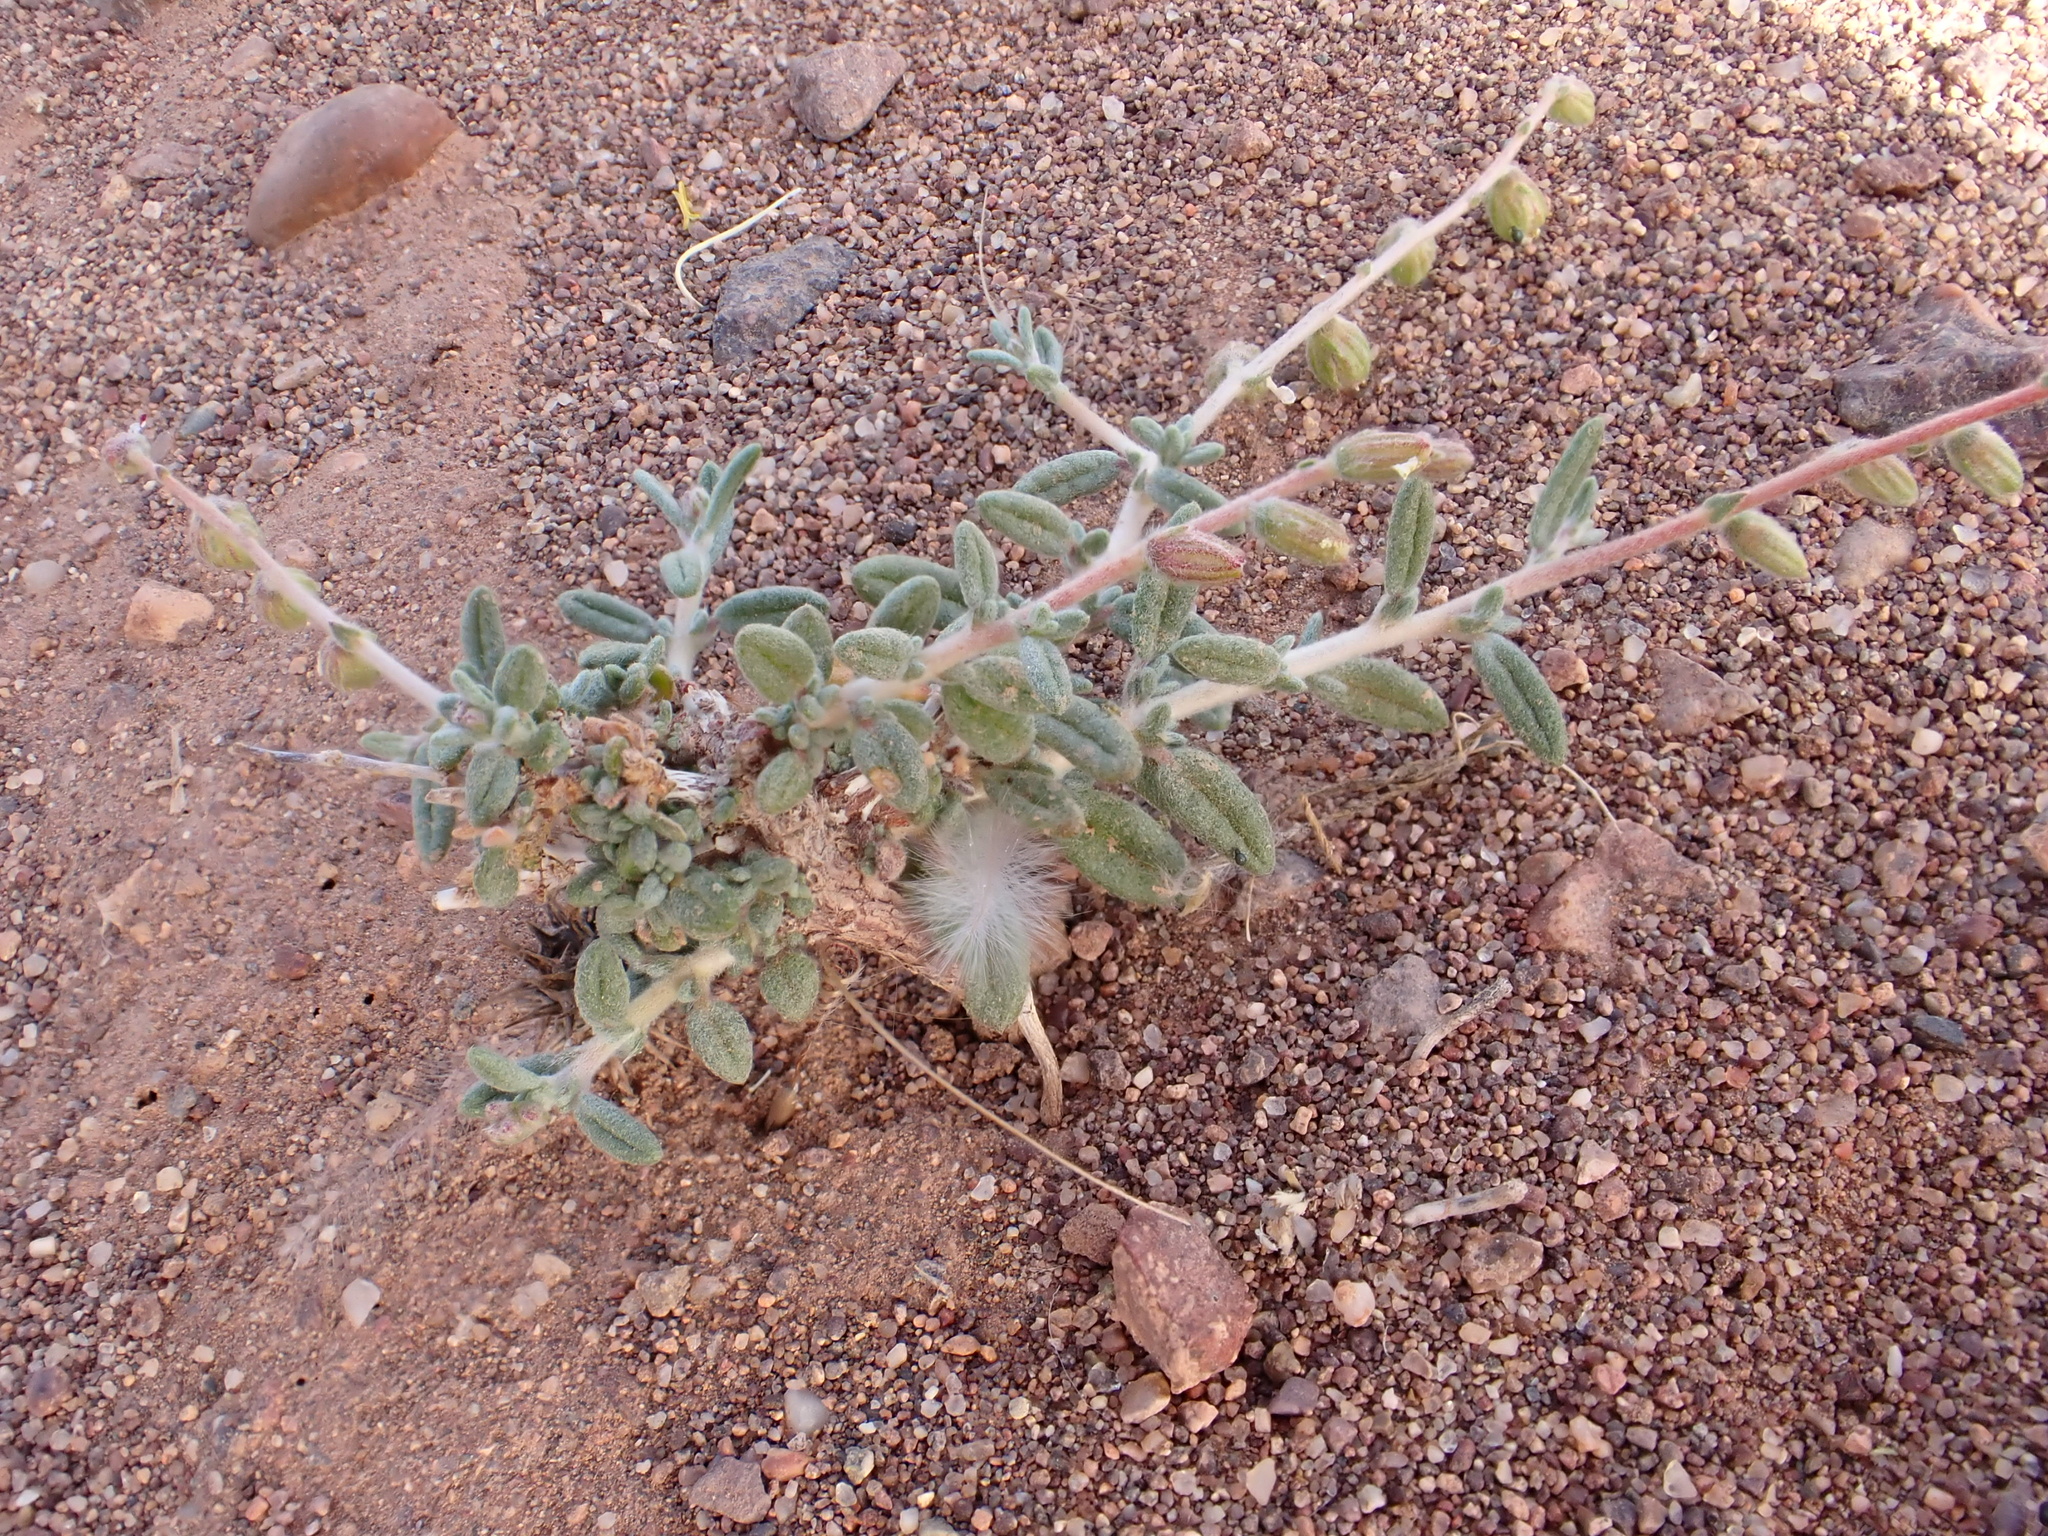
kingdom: Plantae
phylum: Tracheophyta
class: Magnoliopsida
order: Malvales
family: Cistaceae
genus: Helianthemum
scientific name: Helianthemum lippii
